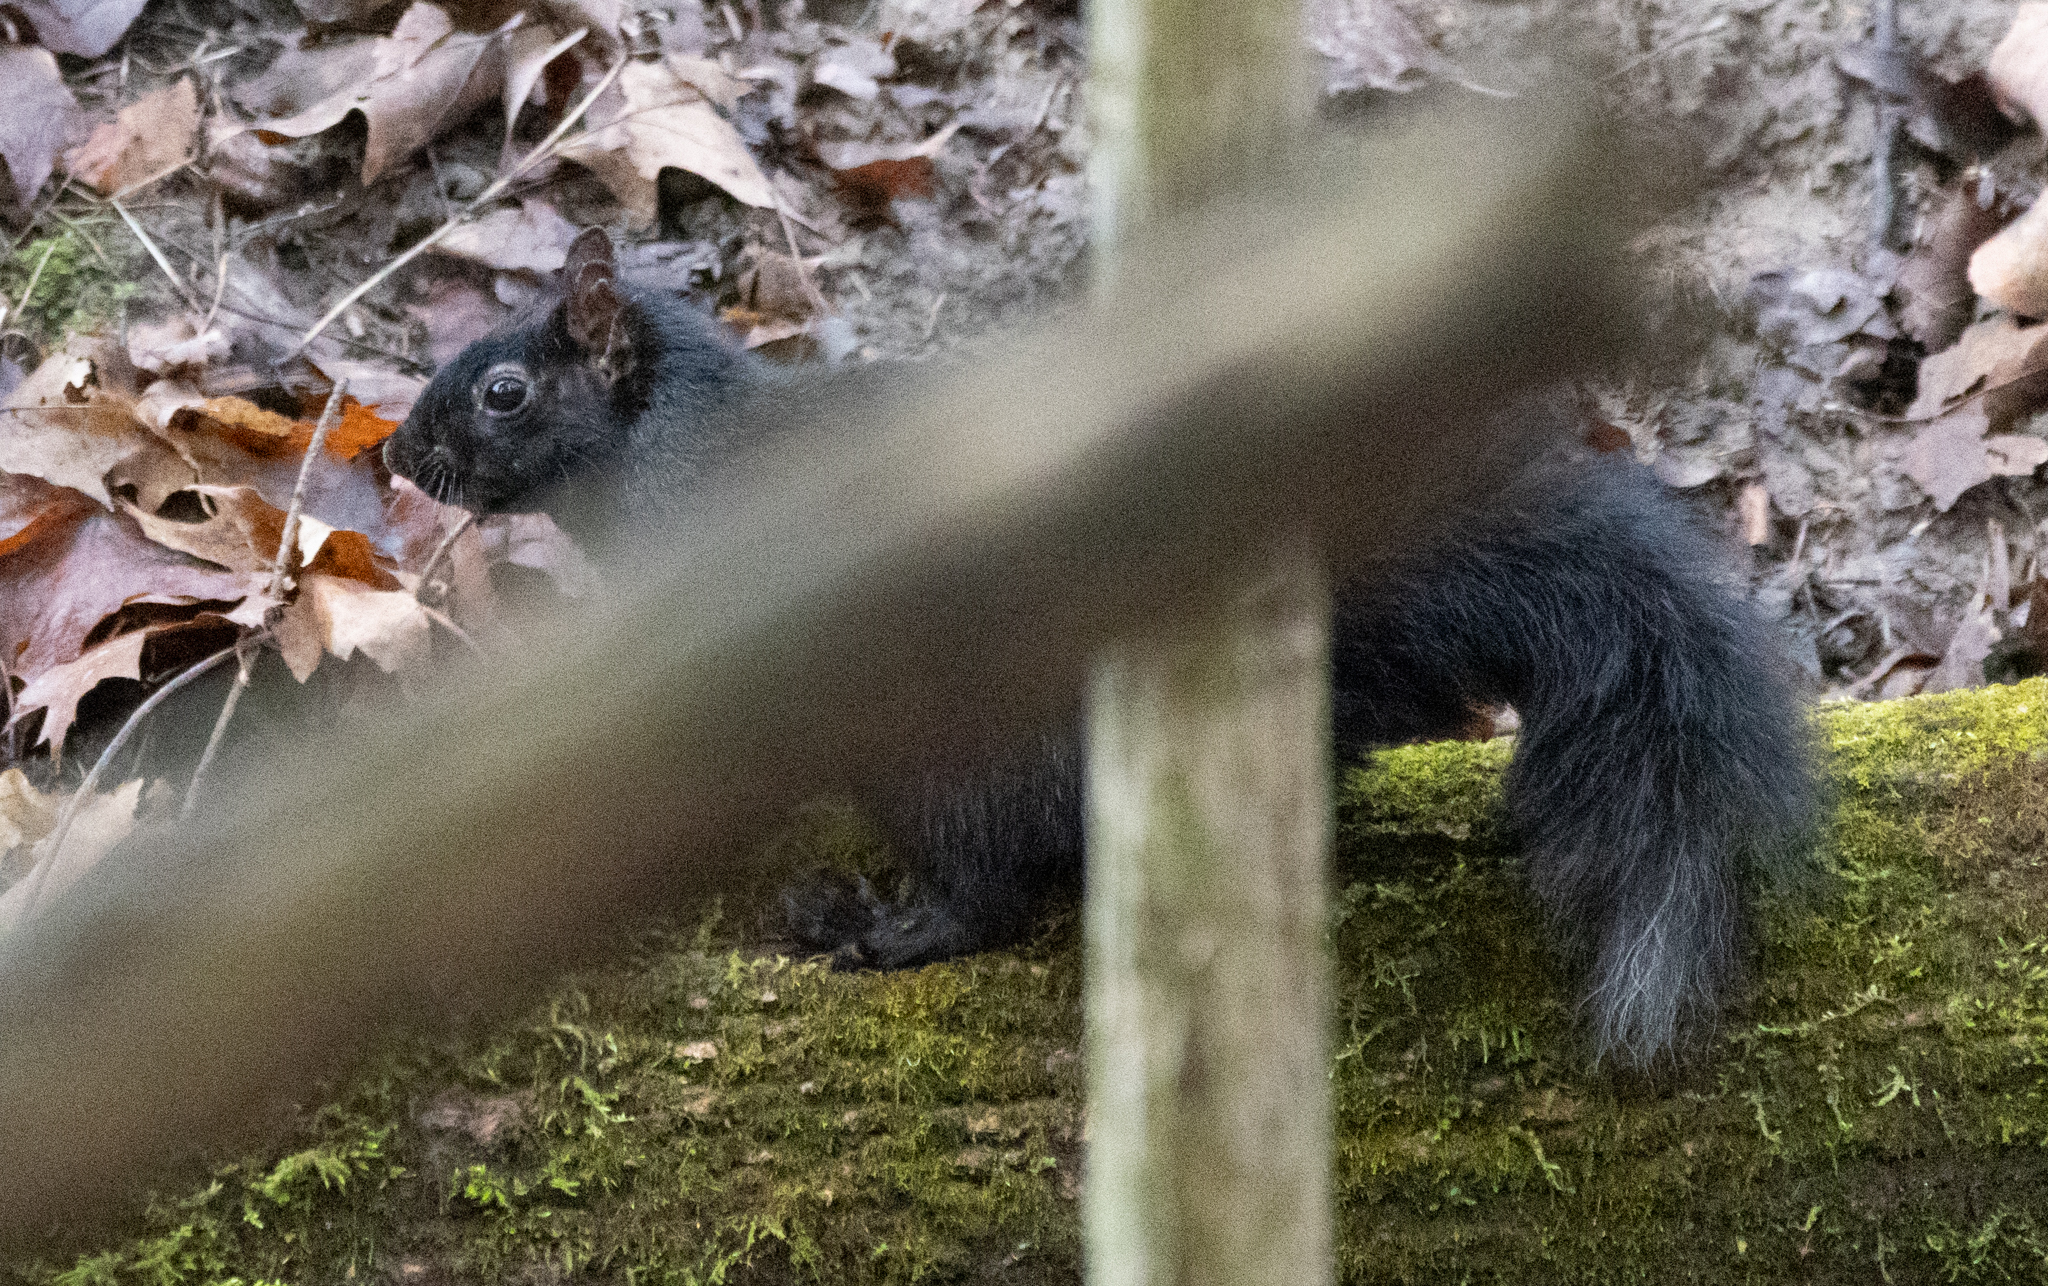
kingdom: Animalia
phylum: Chordata
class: Mammalia
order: Rodentia
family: Sciuridae
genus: Sciurus
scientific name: Sciurus carolinensis
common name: Eastern gray squirrel
